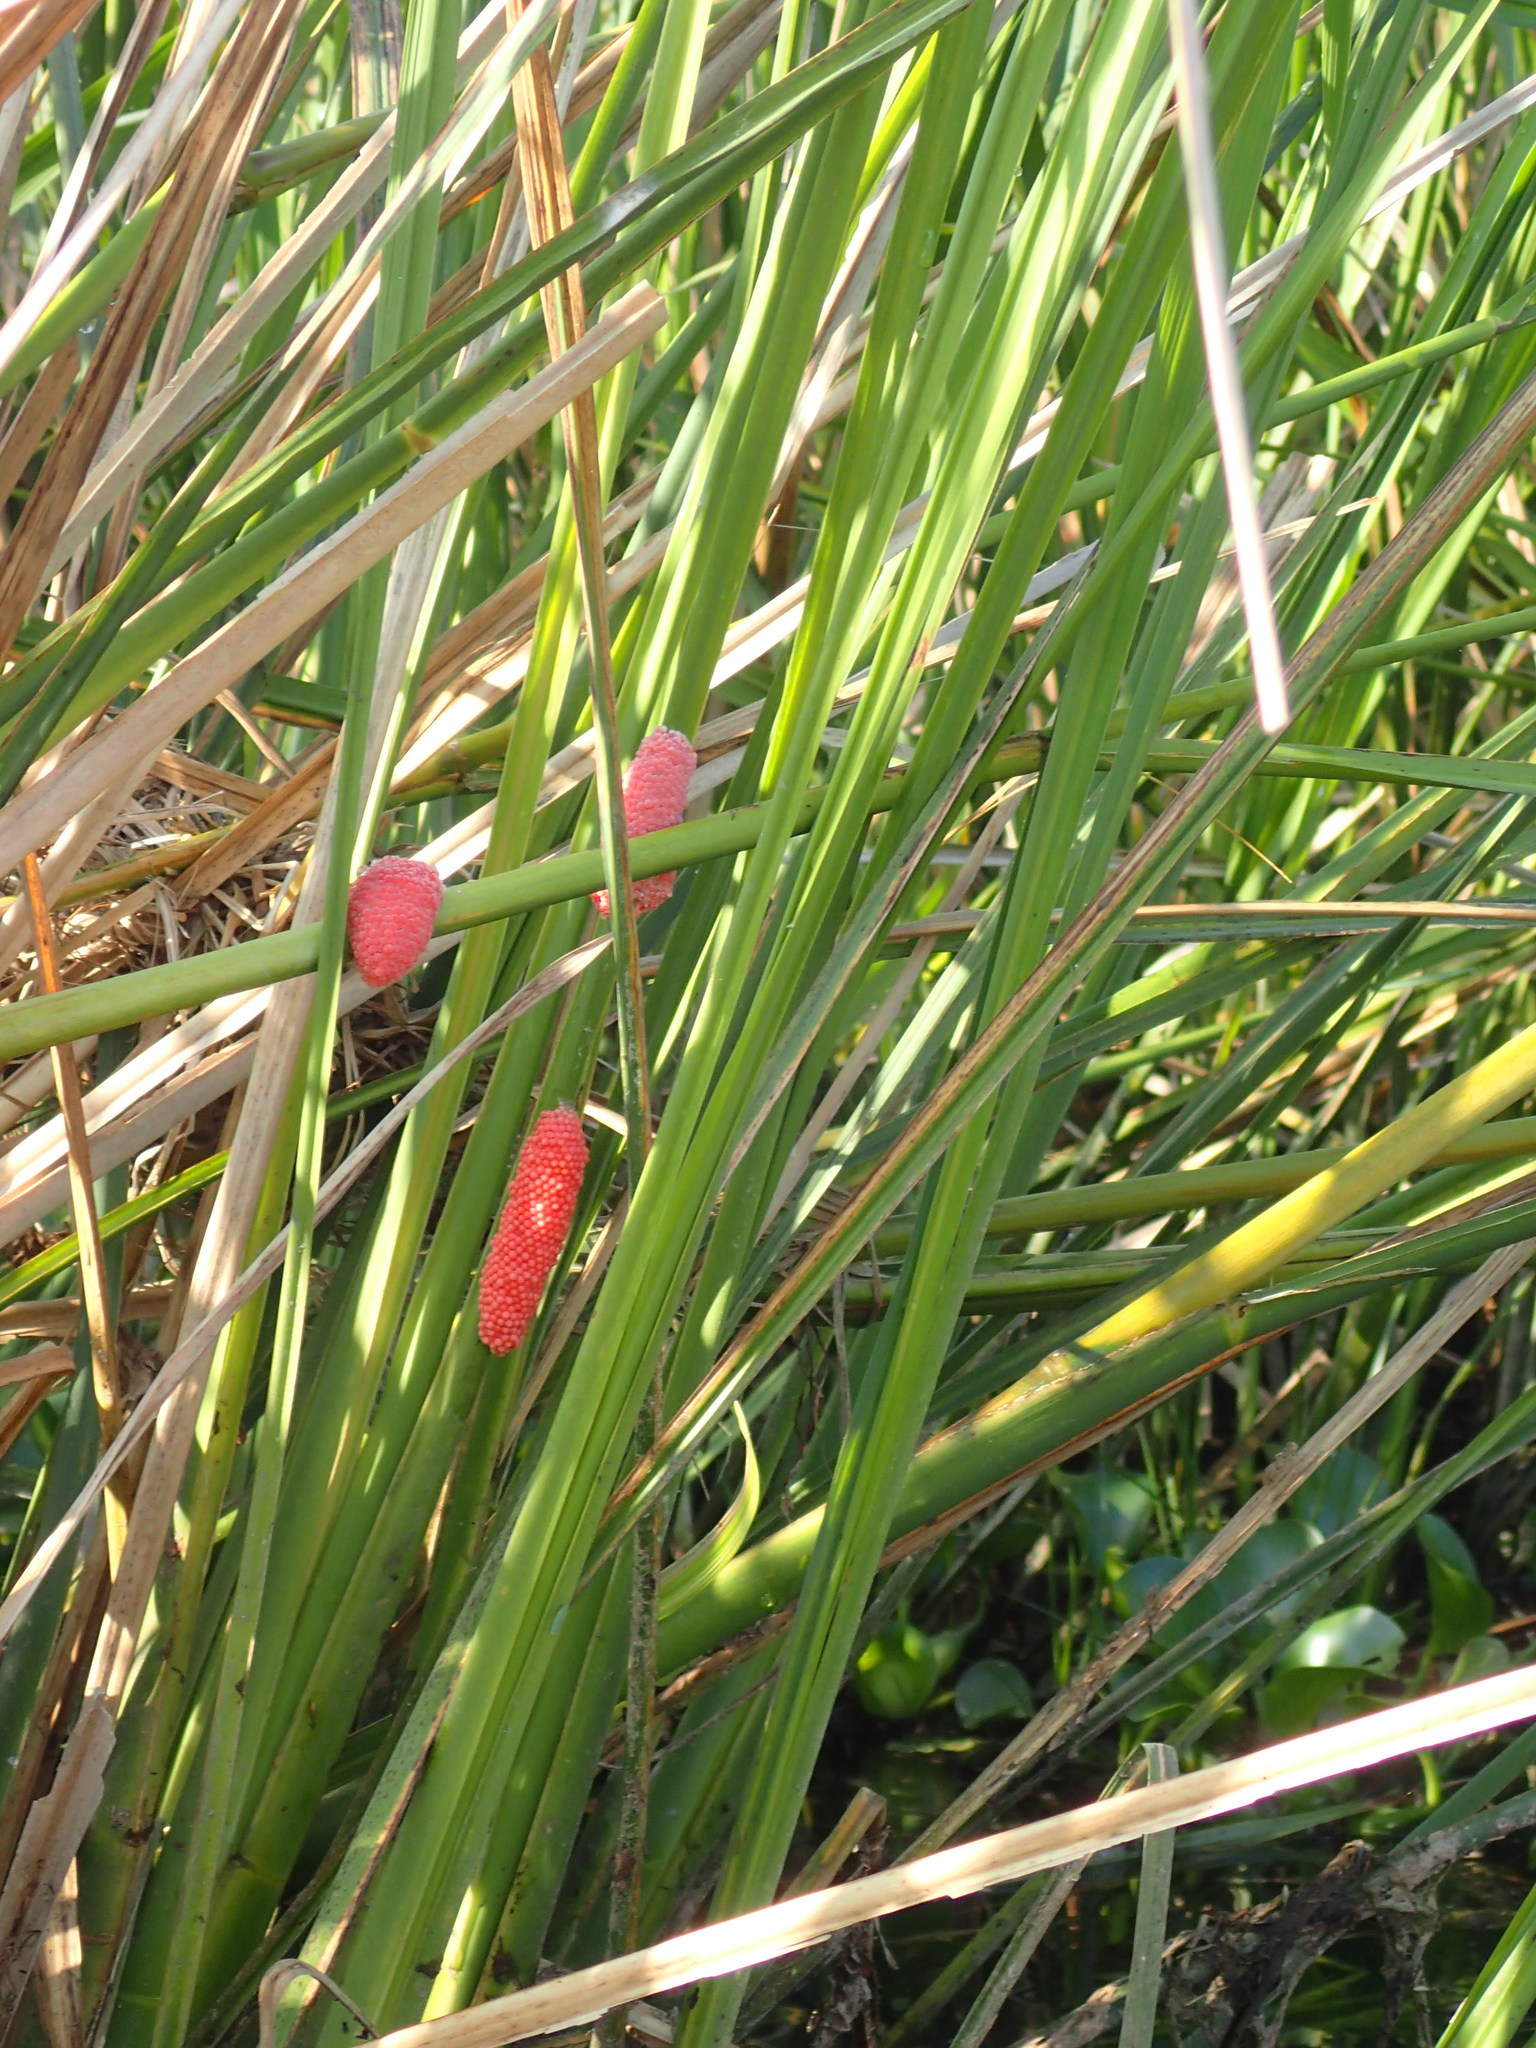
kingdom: Animalia
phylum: Mollusca
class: Gastropoda
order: Architaenioglossa
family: Ampullariidae
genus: Pomacea
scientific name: Pomacea maculata
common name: Giant applesnail
